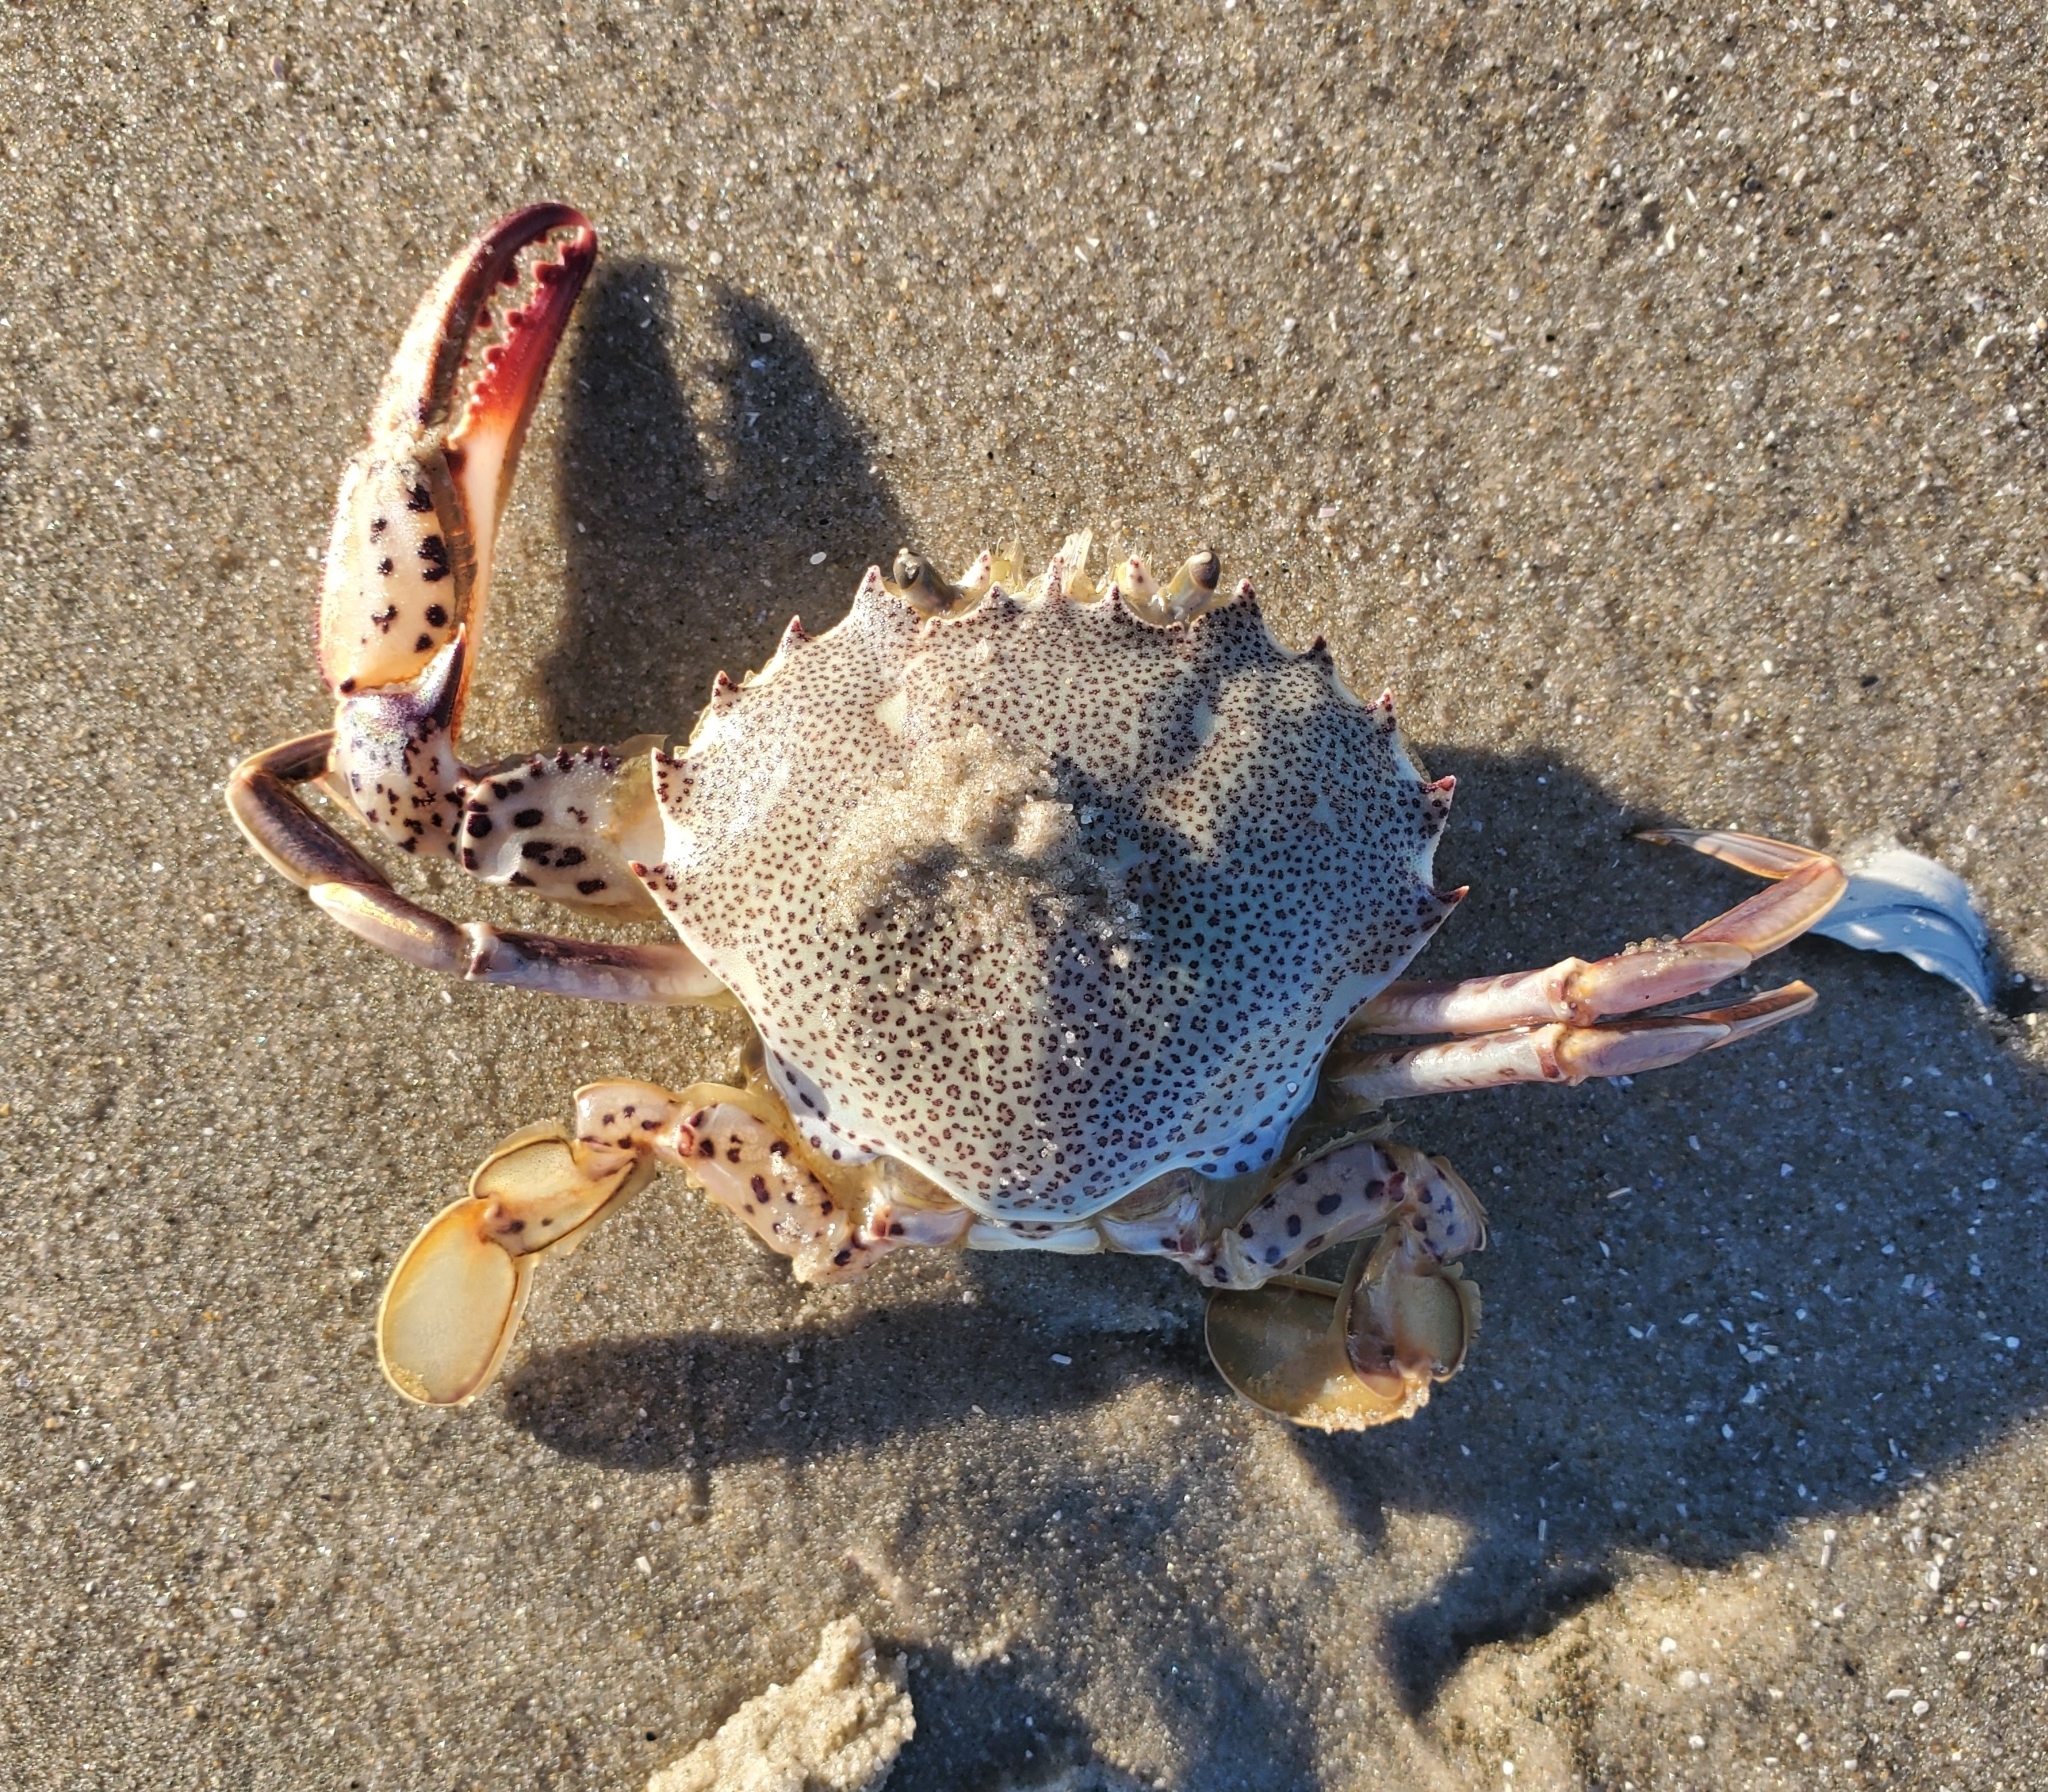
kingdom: Animalia
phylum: Arthropoda
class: Malacostraca
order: Decapoda
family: Ovalipidae
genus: Ovalipes
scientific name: Ovalipes ocellatus
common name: Lady crab
